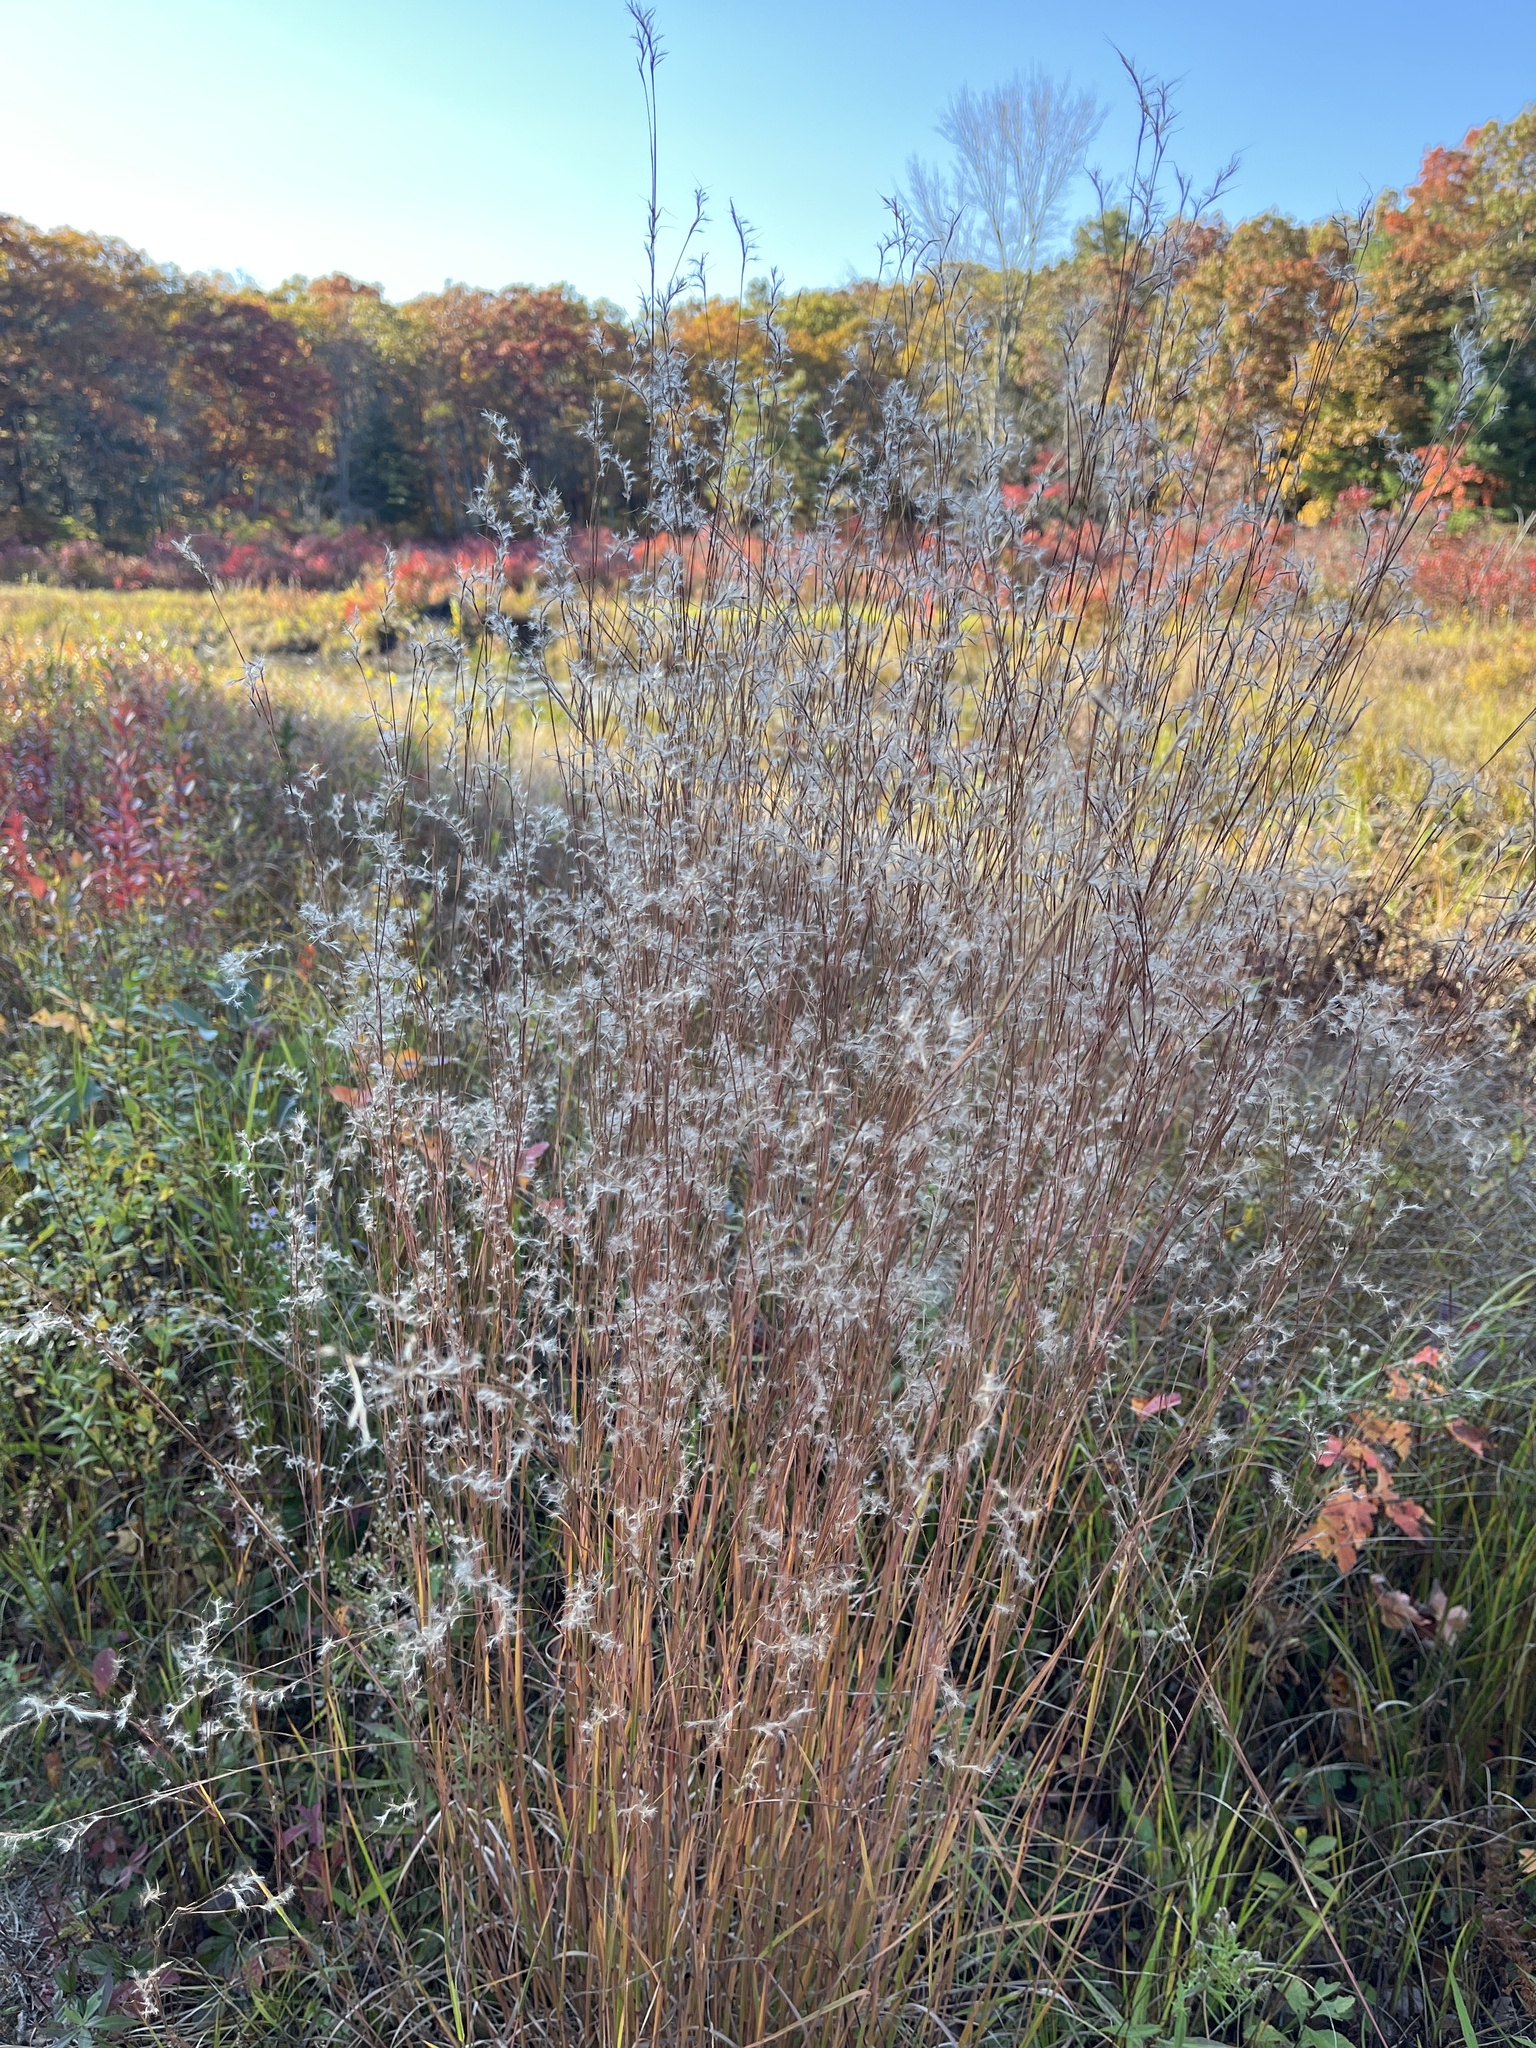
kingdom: Plantae
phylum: Tracheophyta
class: Liliopsida
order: Poales
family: Poaceae
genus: Schizachyrium
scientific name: Schizachyrium scoparium
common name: Little bluestem
